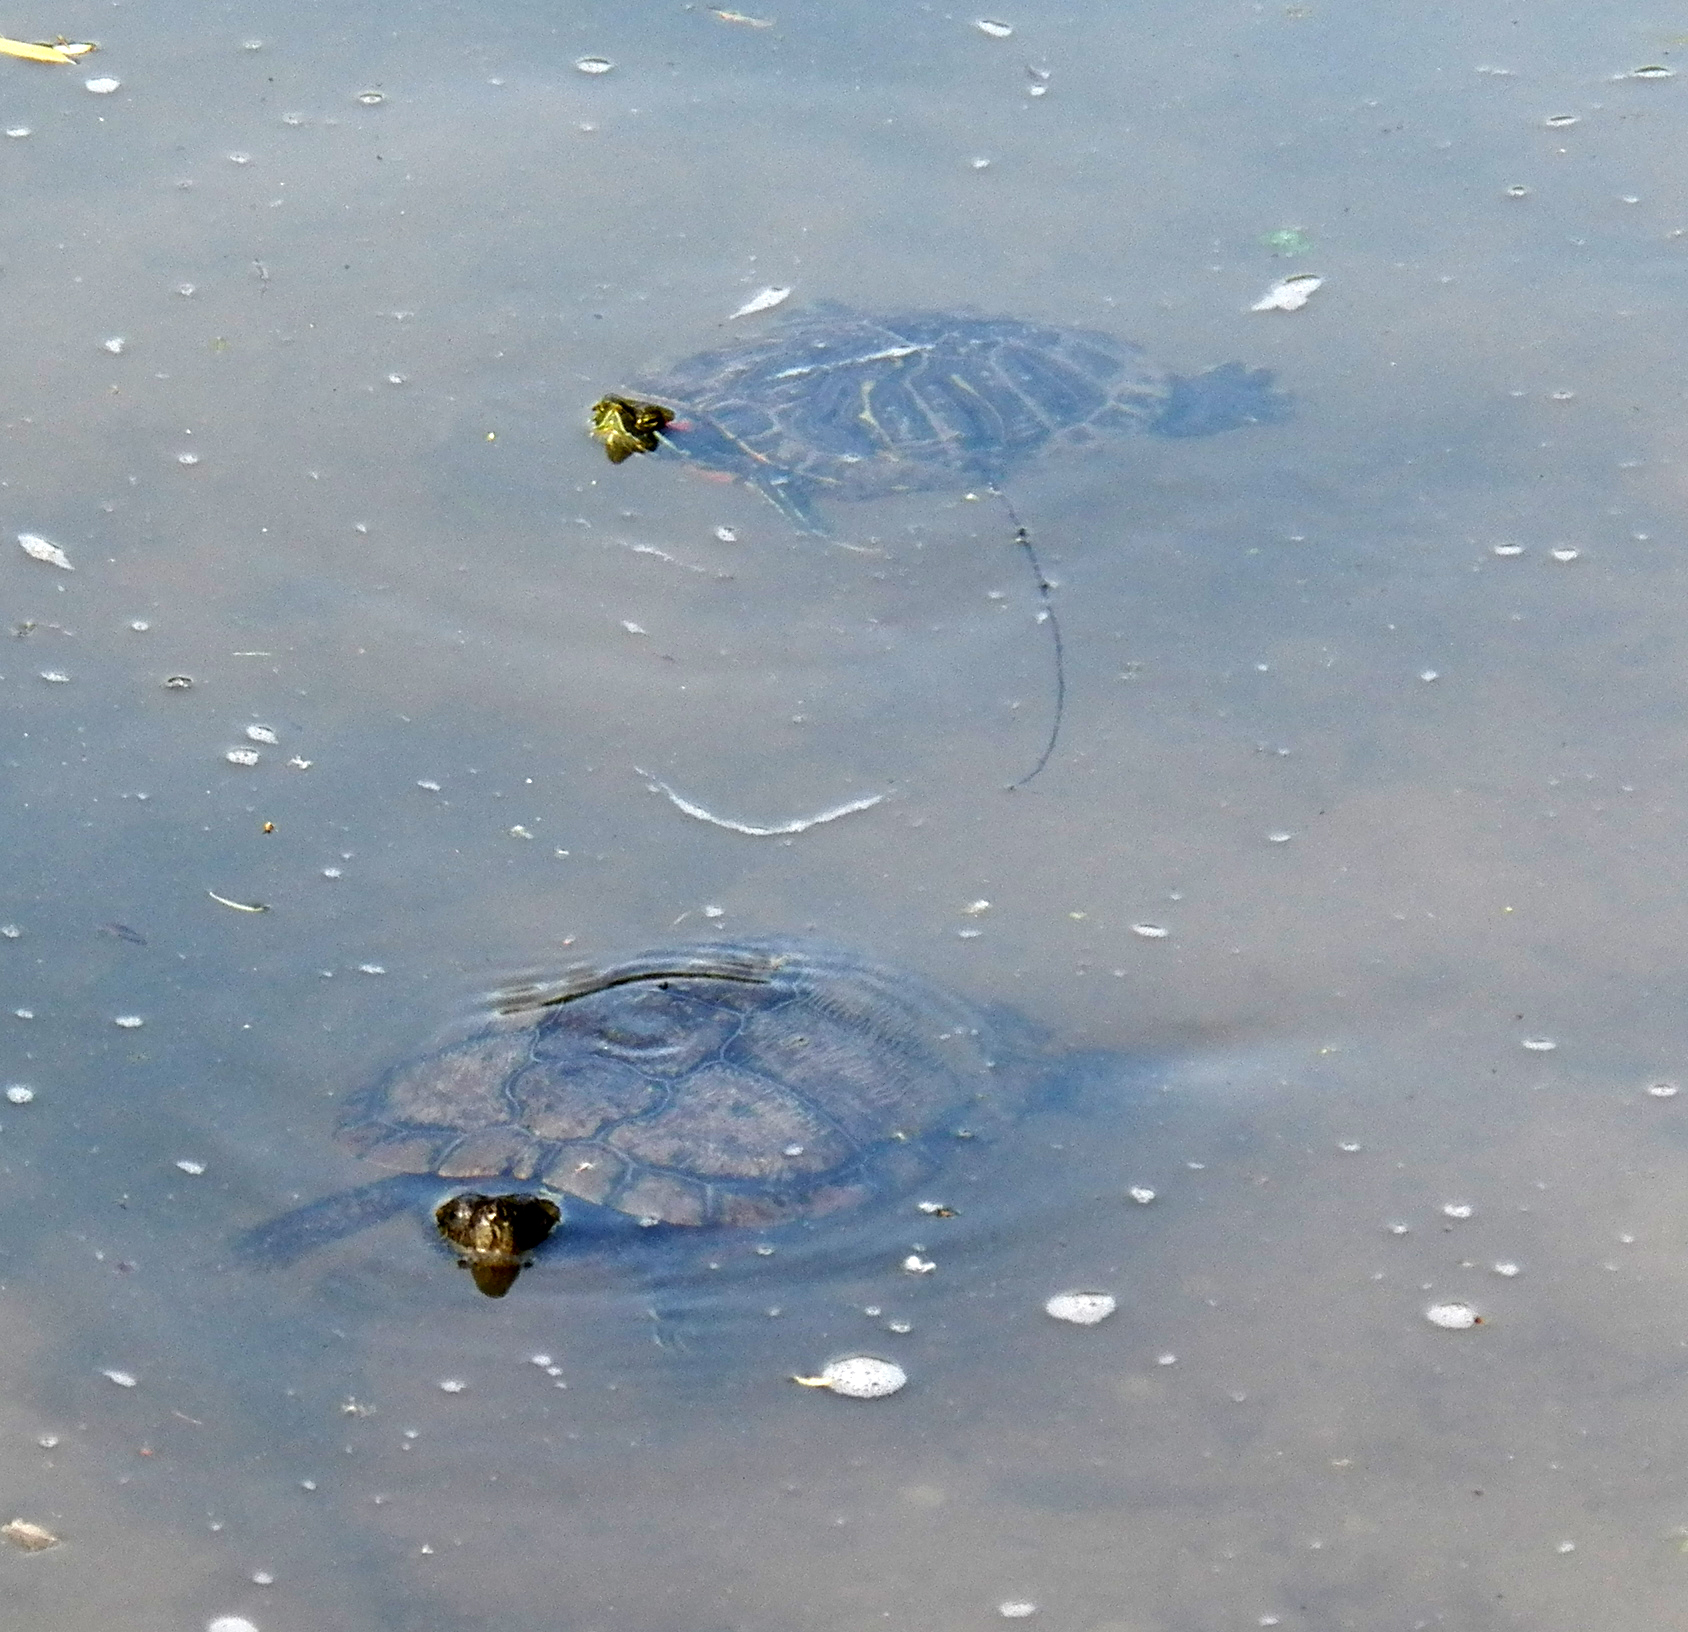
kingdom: Animalia
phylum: Chordata
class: Testudines
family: Emydidae
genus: Trachemys
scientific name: Trachemys scripta
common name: Slider
